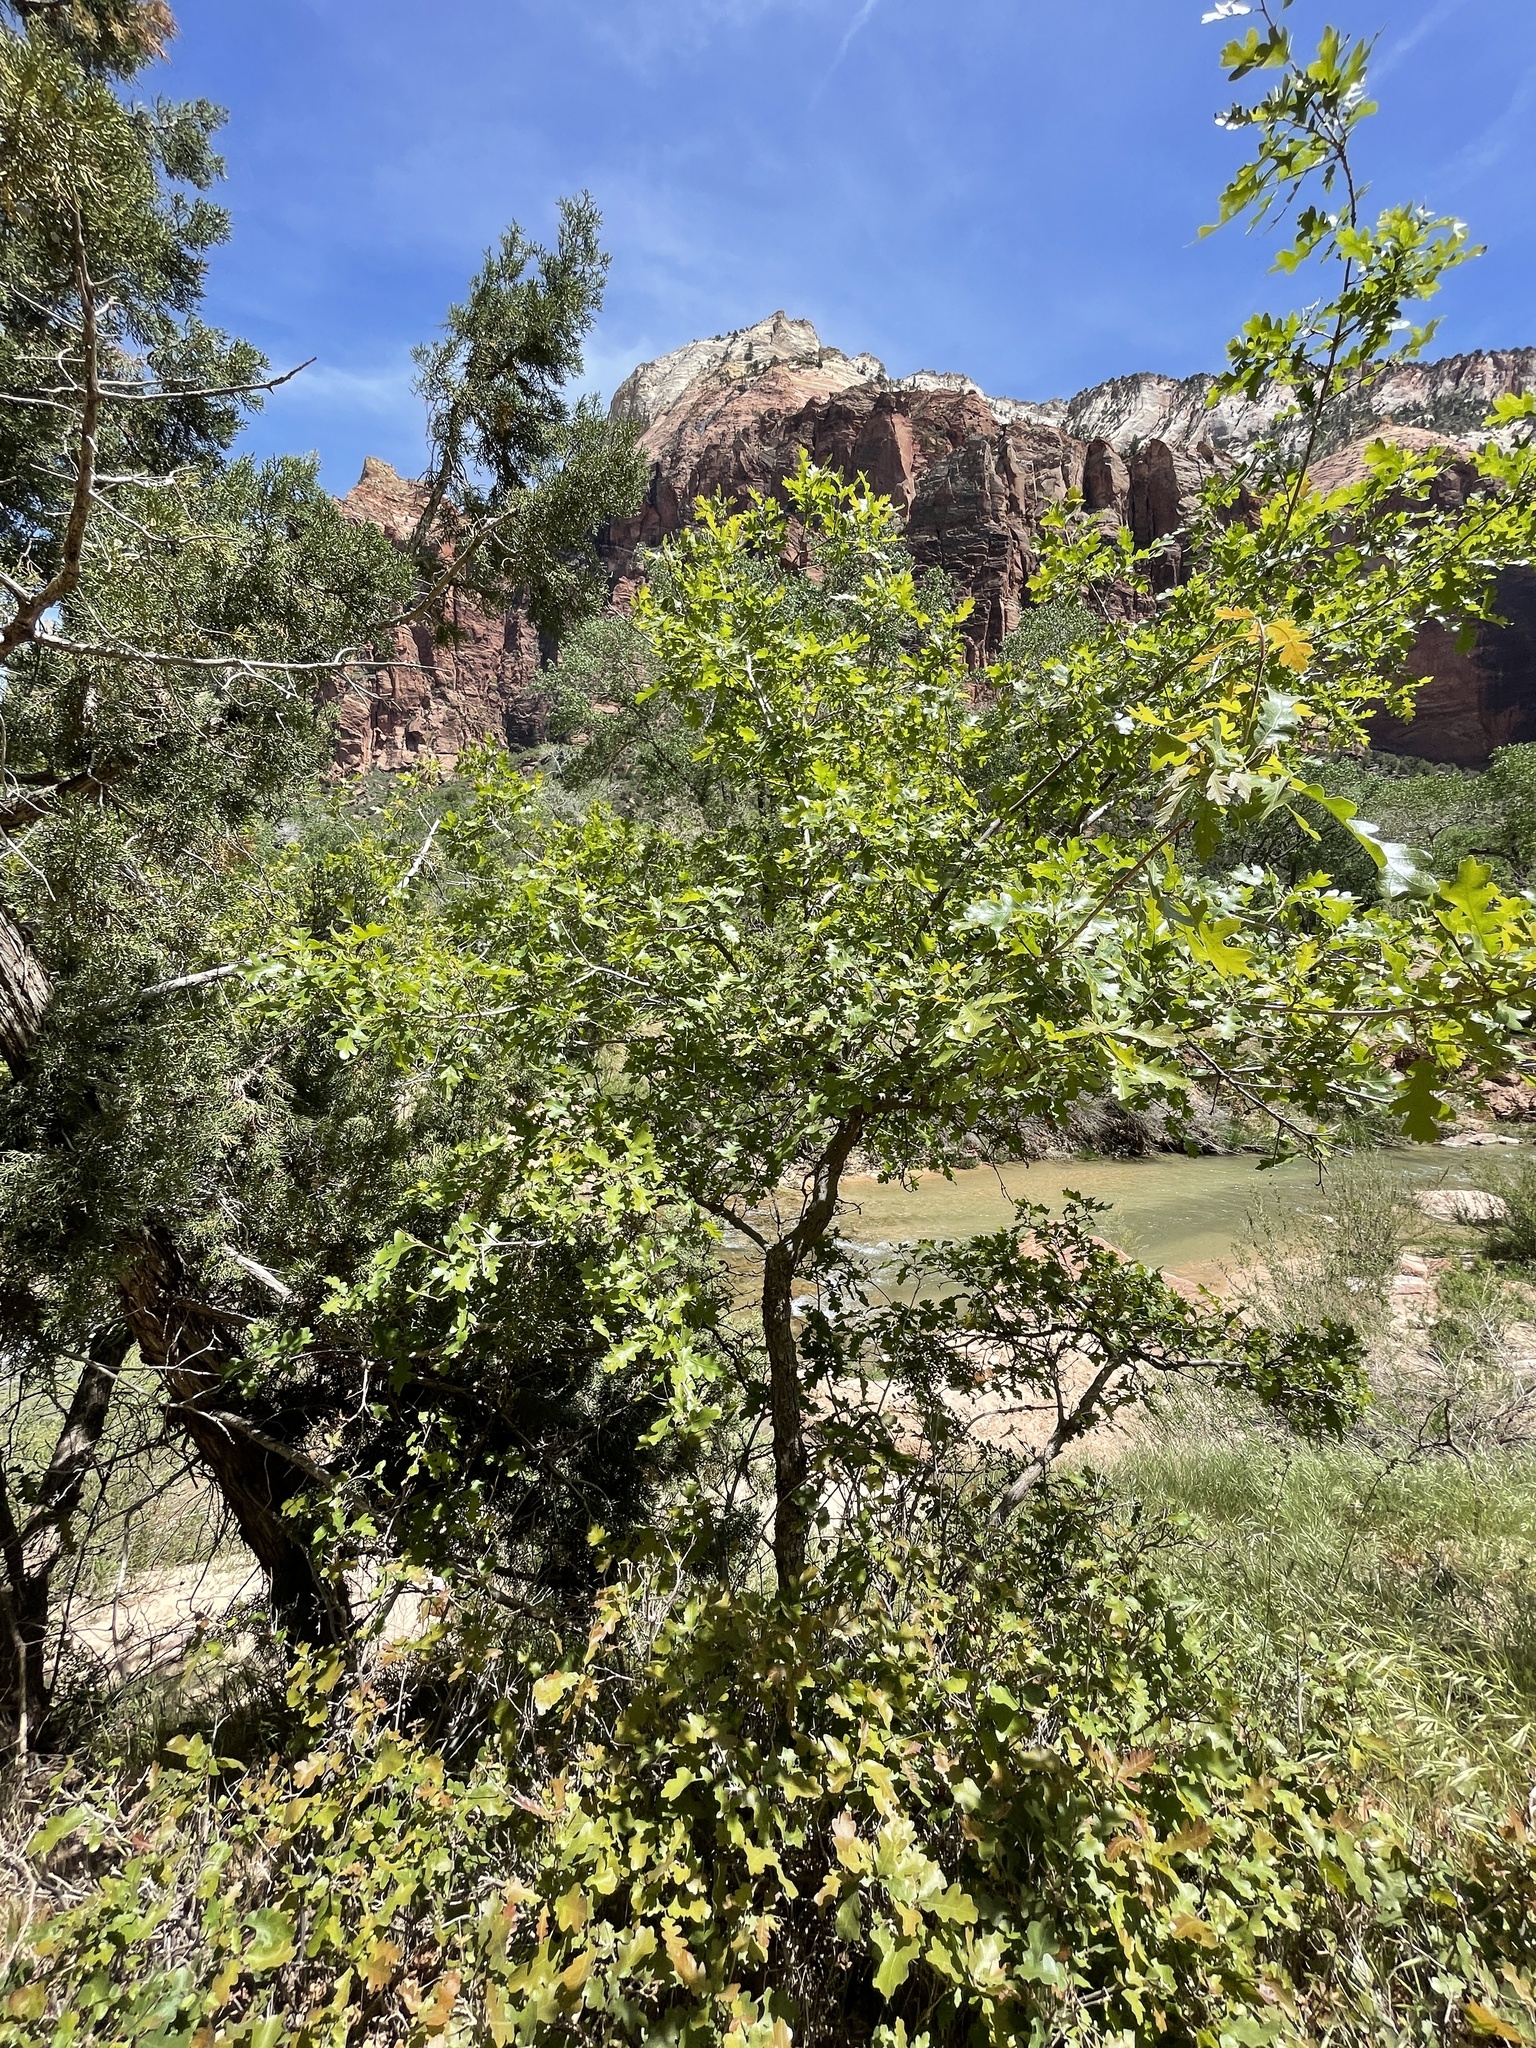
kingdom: Plantae
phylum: Tracheophyta
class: Magnoliopsida
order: Fagales
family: Fagaceae
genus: Quercus
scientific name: Quercus gambelii
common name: Gambel oak
